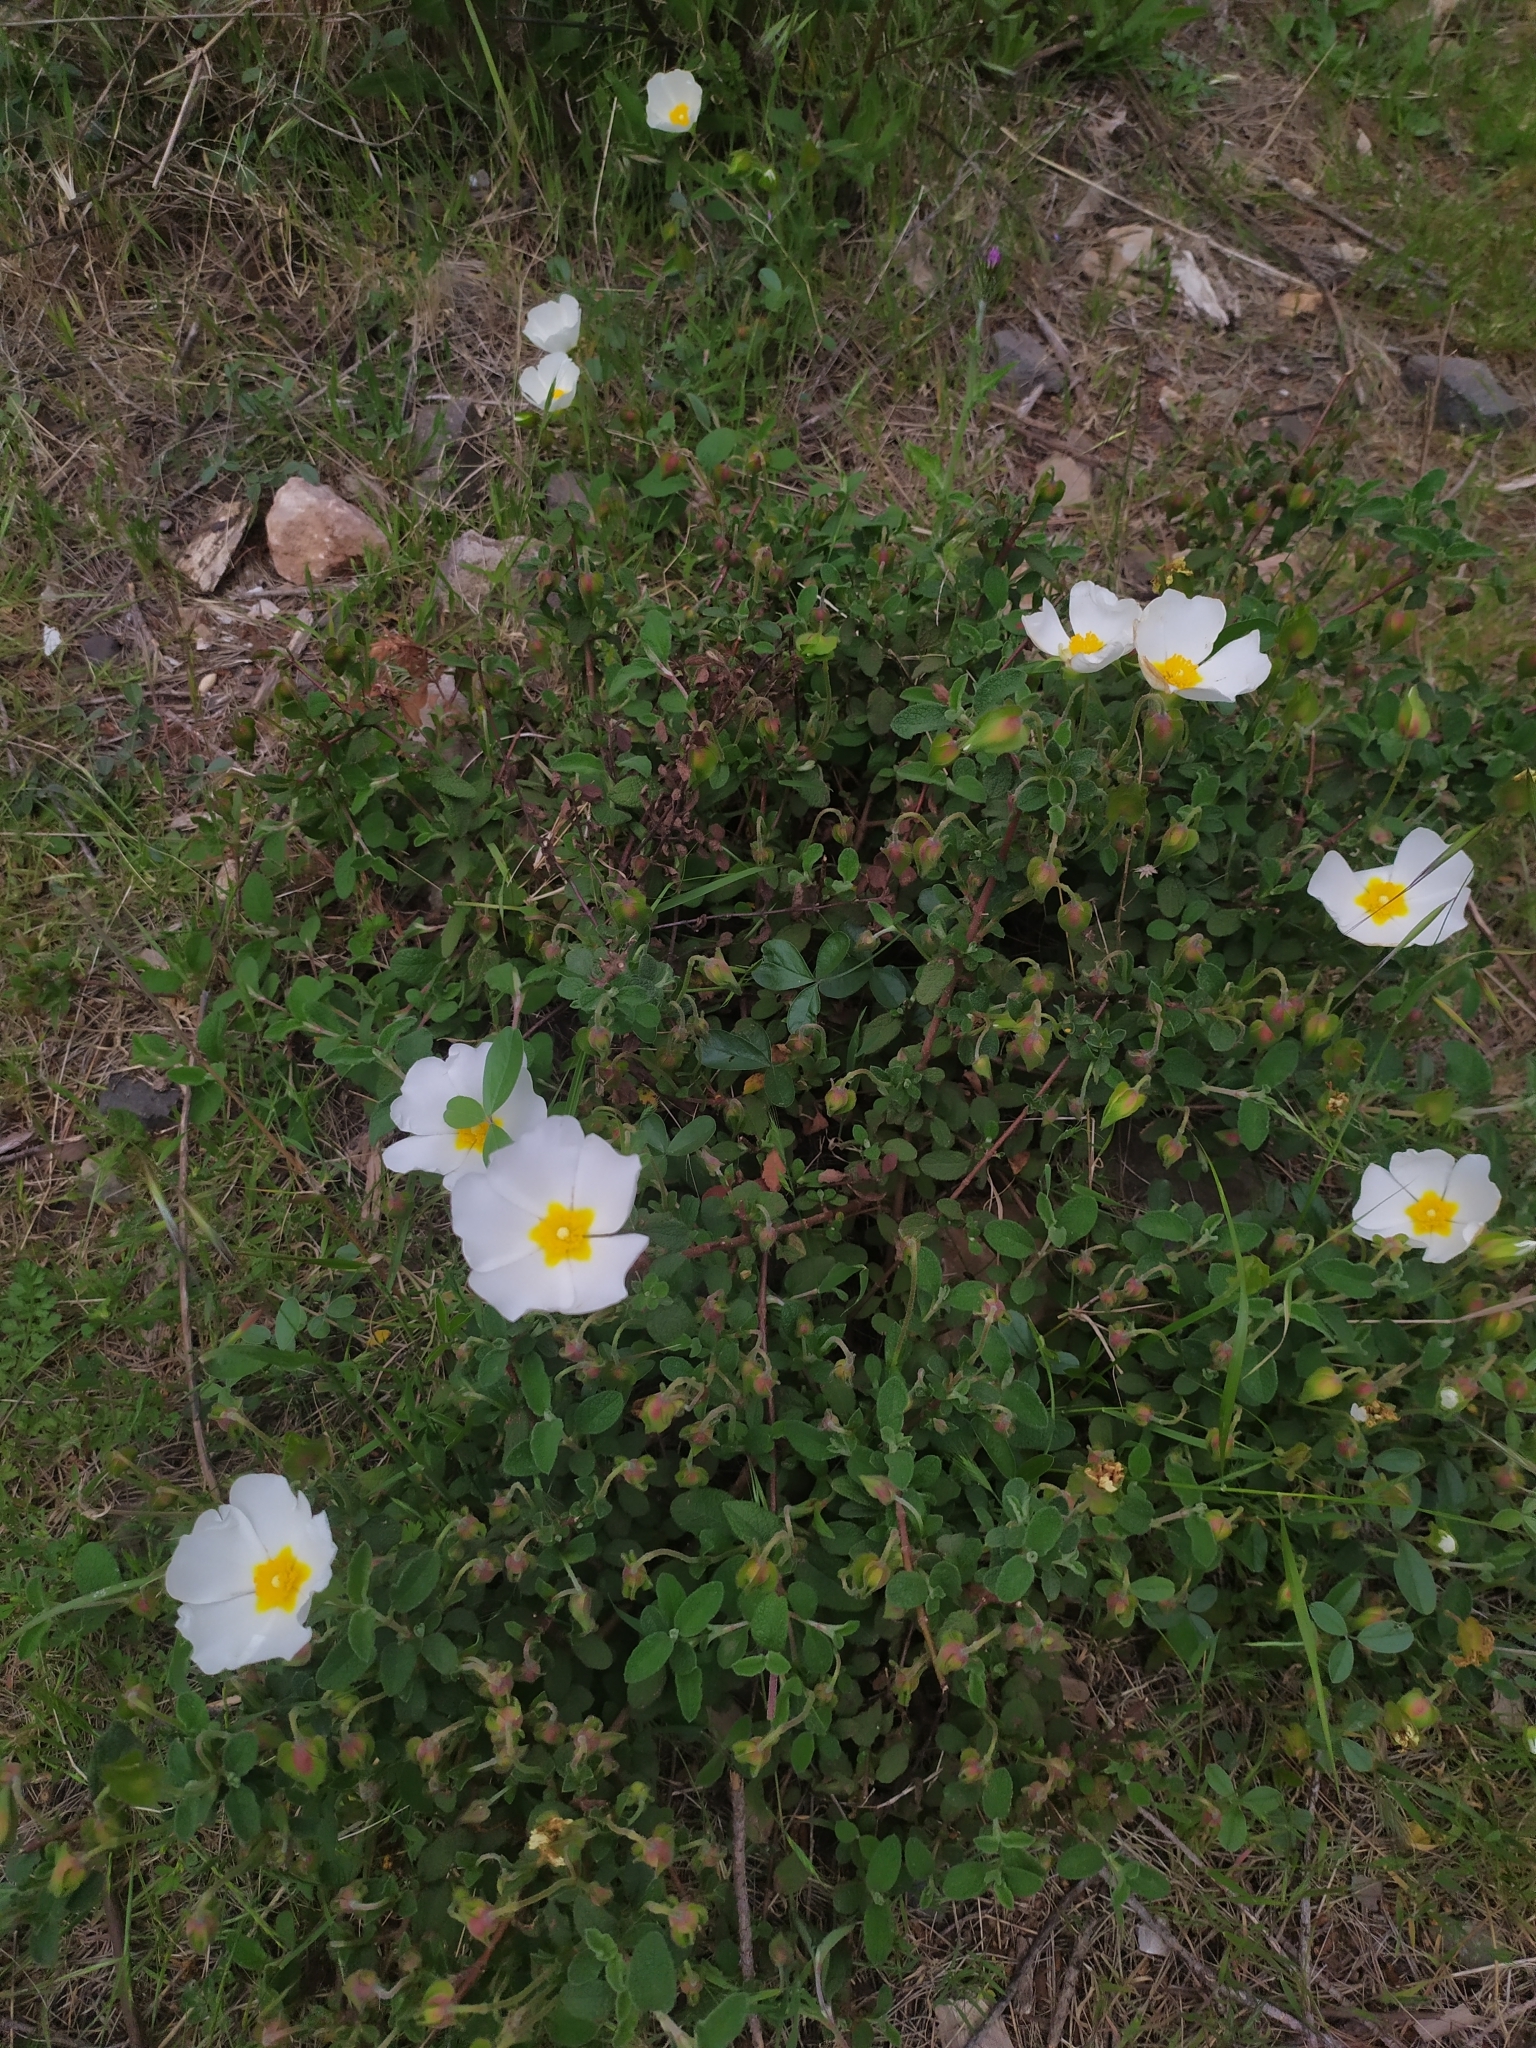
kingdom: Plantae
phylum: Tracheophyta
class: Magnoliopsida
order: Malvales
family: Cistaceae
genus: Cistus
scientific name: Cistus salviifolius
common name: Salvia cistus
